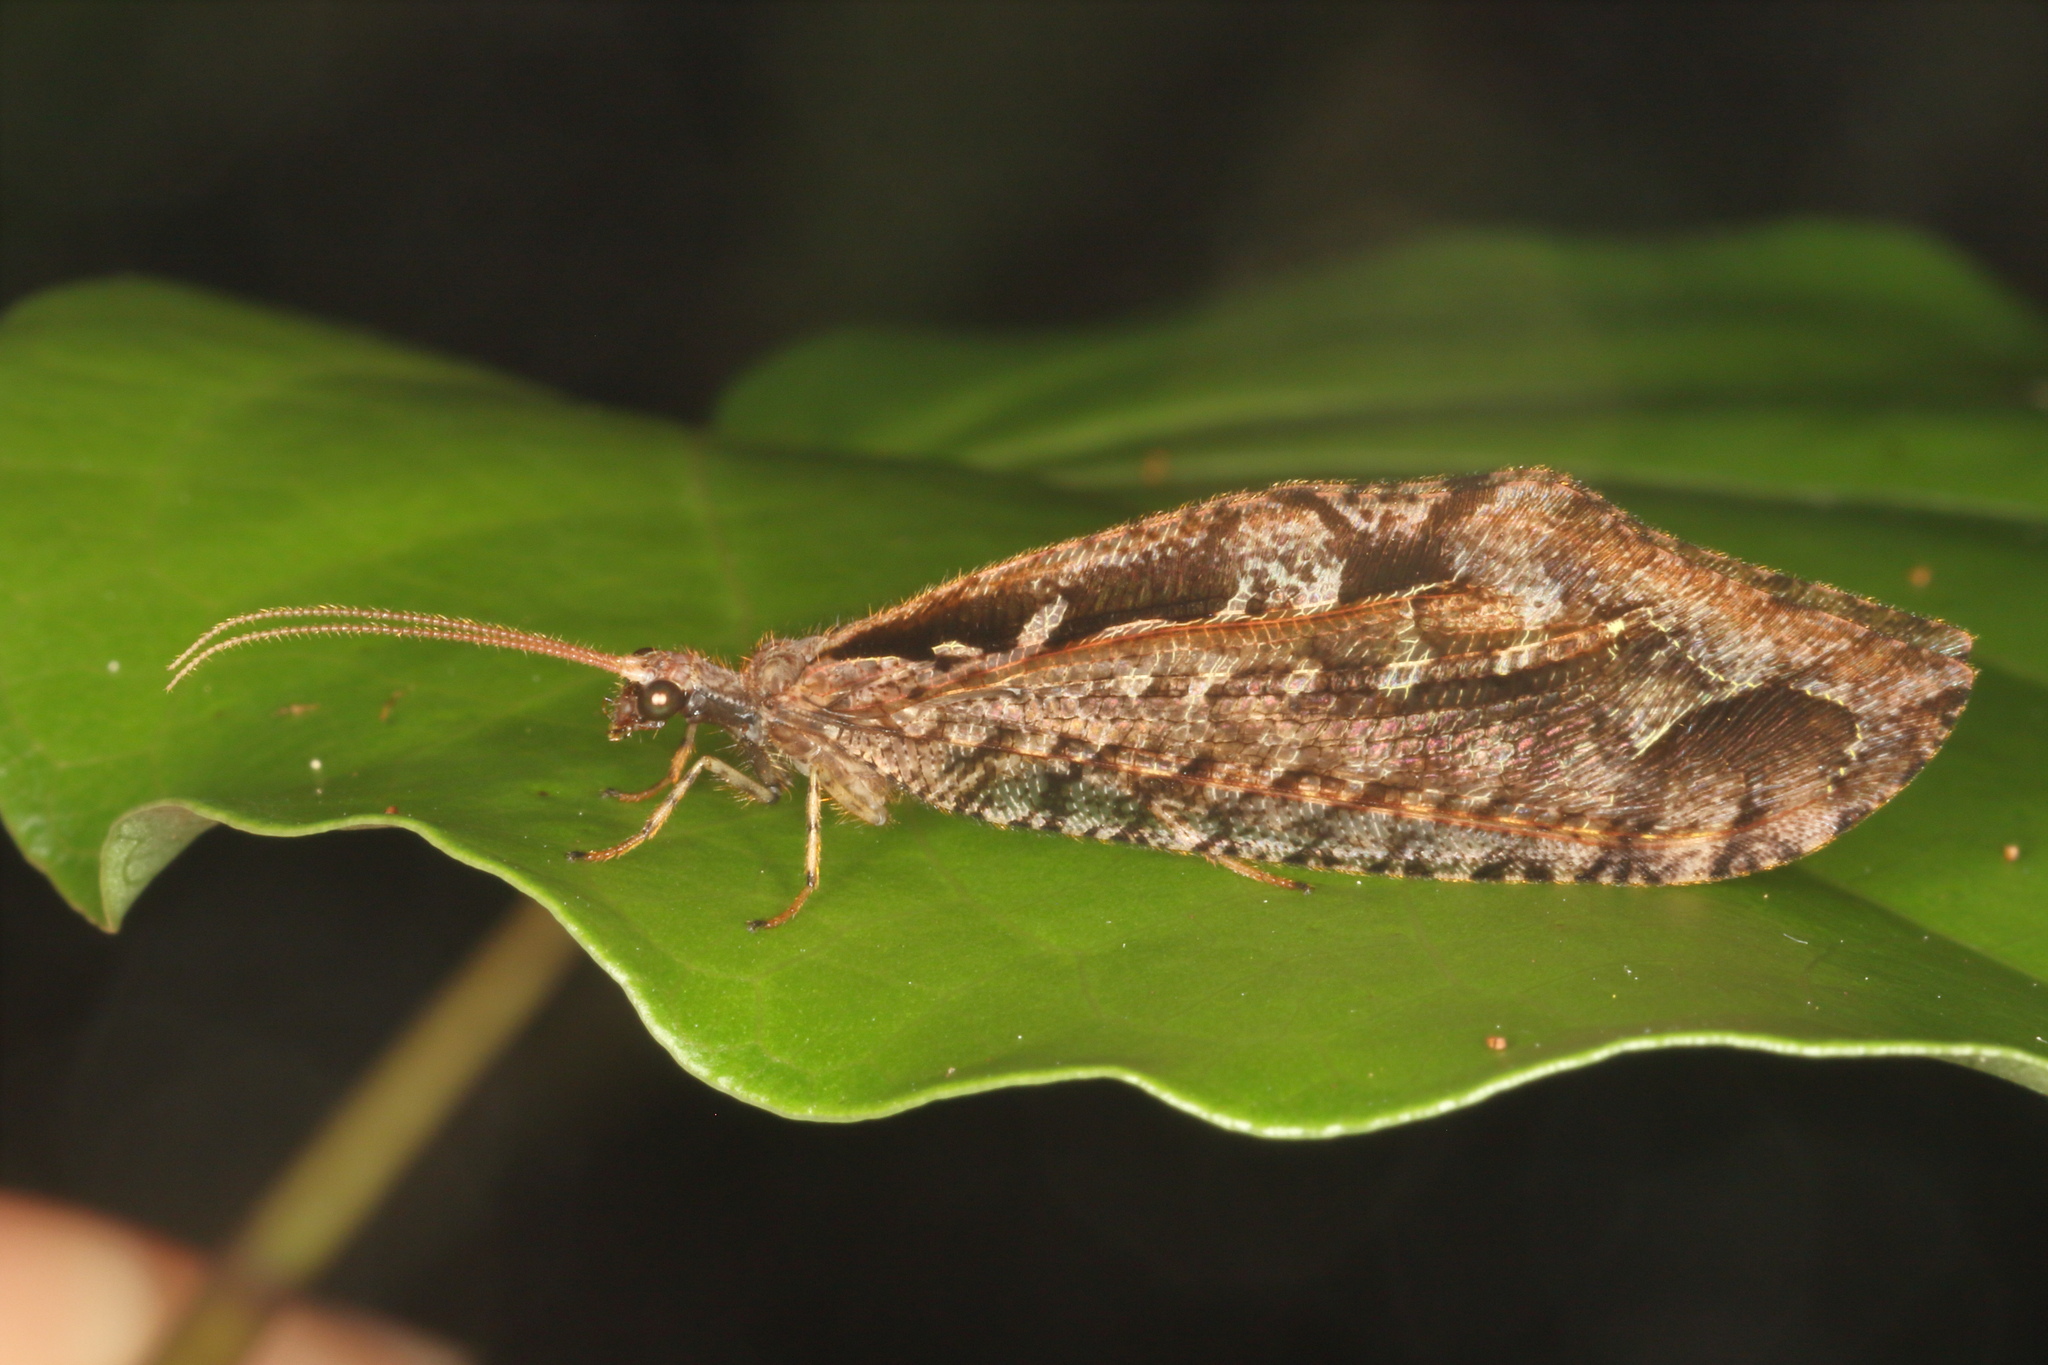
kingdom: Animalia
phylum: Arthropoda
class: Insecta
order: Neuroptera
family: Osmylidae
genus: Kempynus
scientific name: Kempynus incisus
